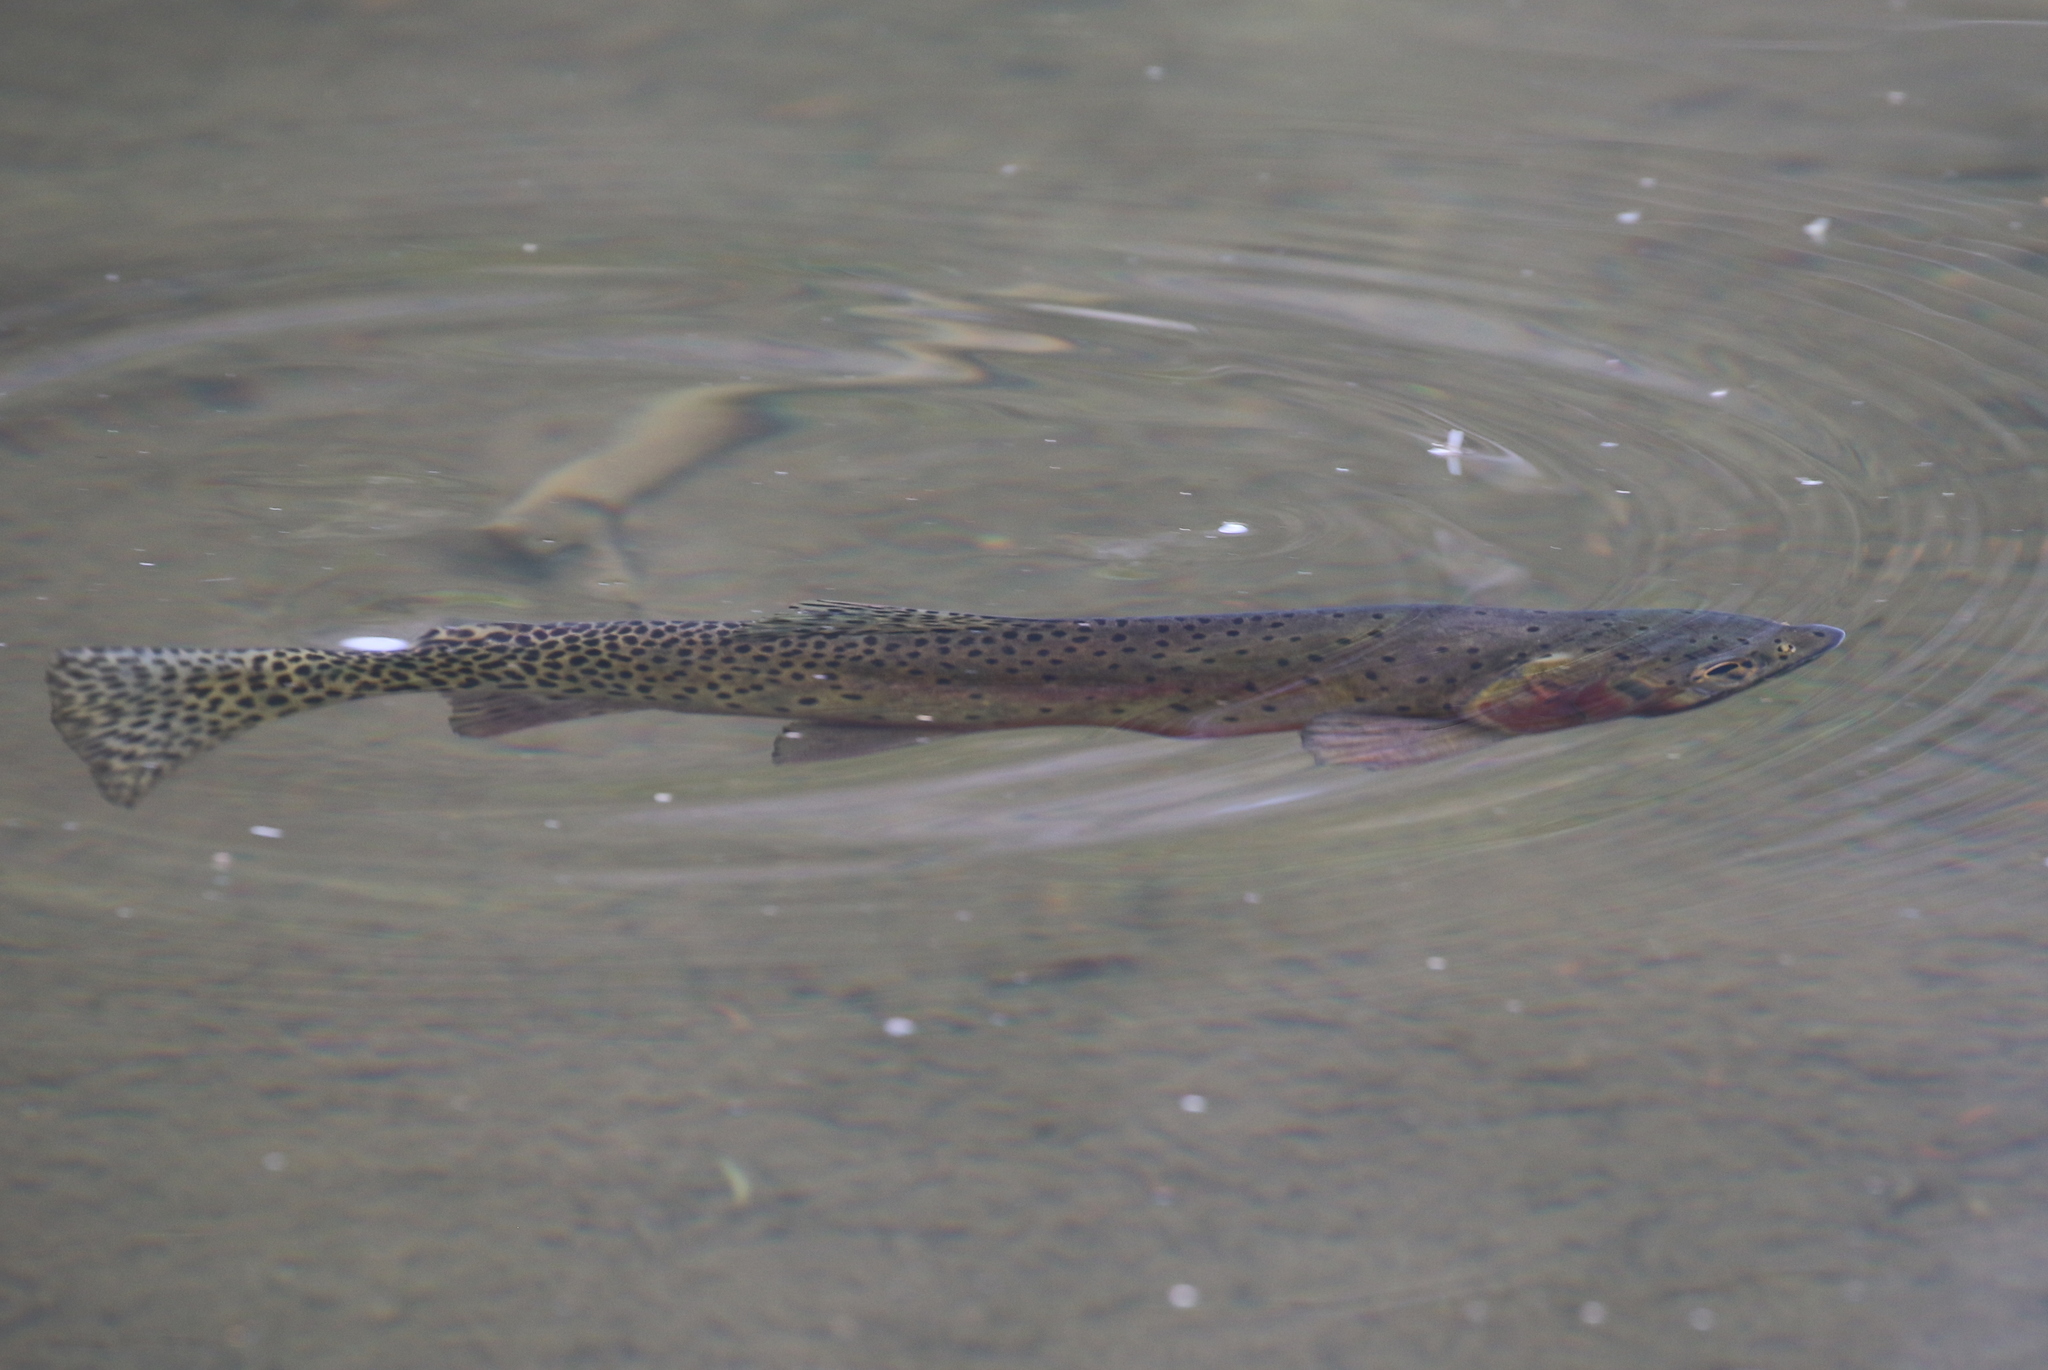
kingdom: Animalia
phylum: Chordata
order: Salmoniformes
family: Salmonidae
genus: Oncorhynchus
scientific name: Oncorhynchus virginalis
